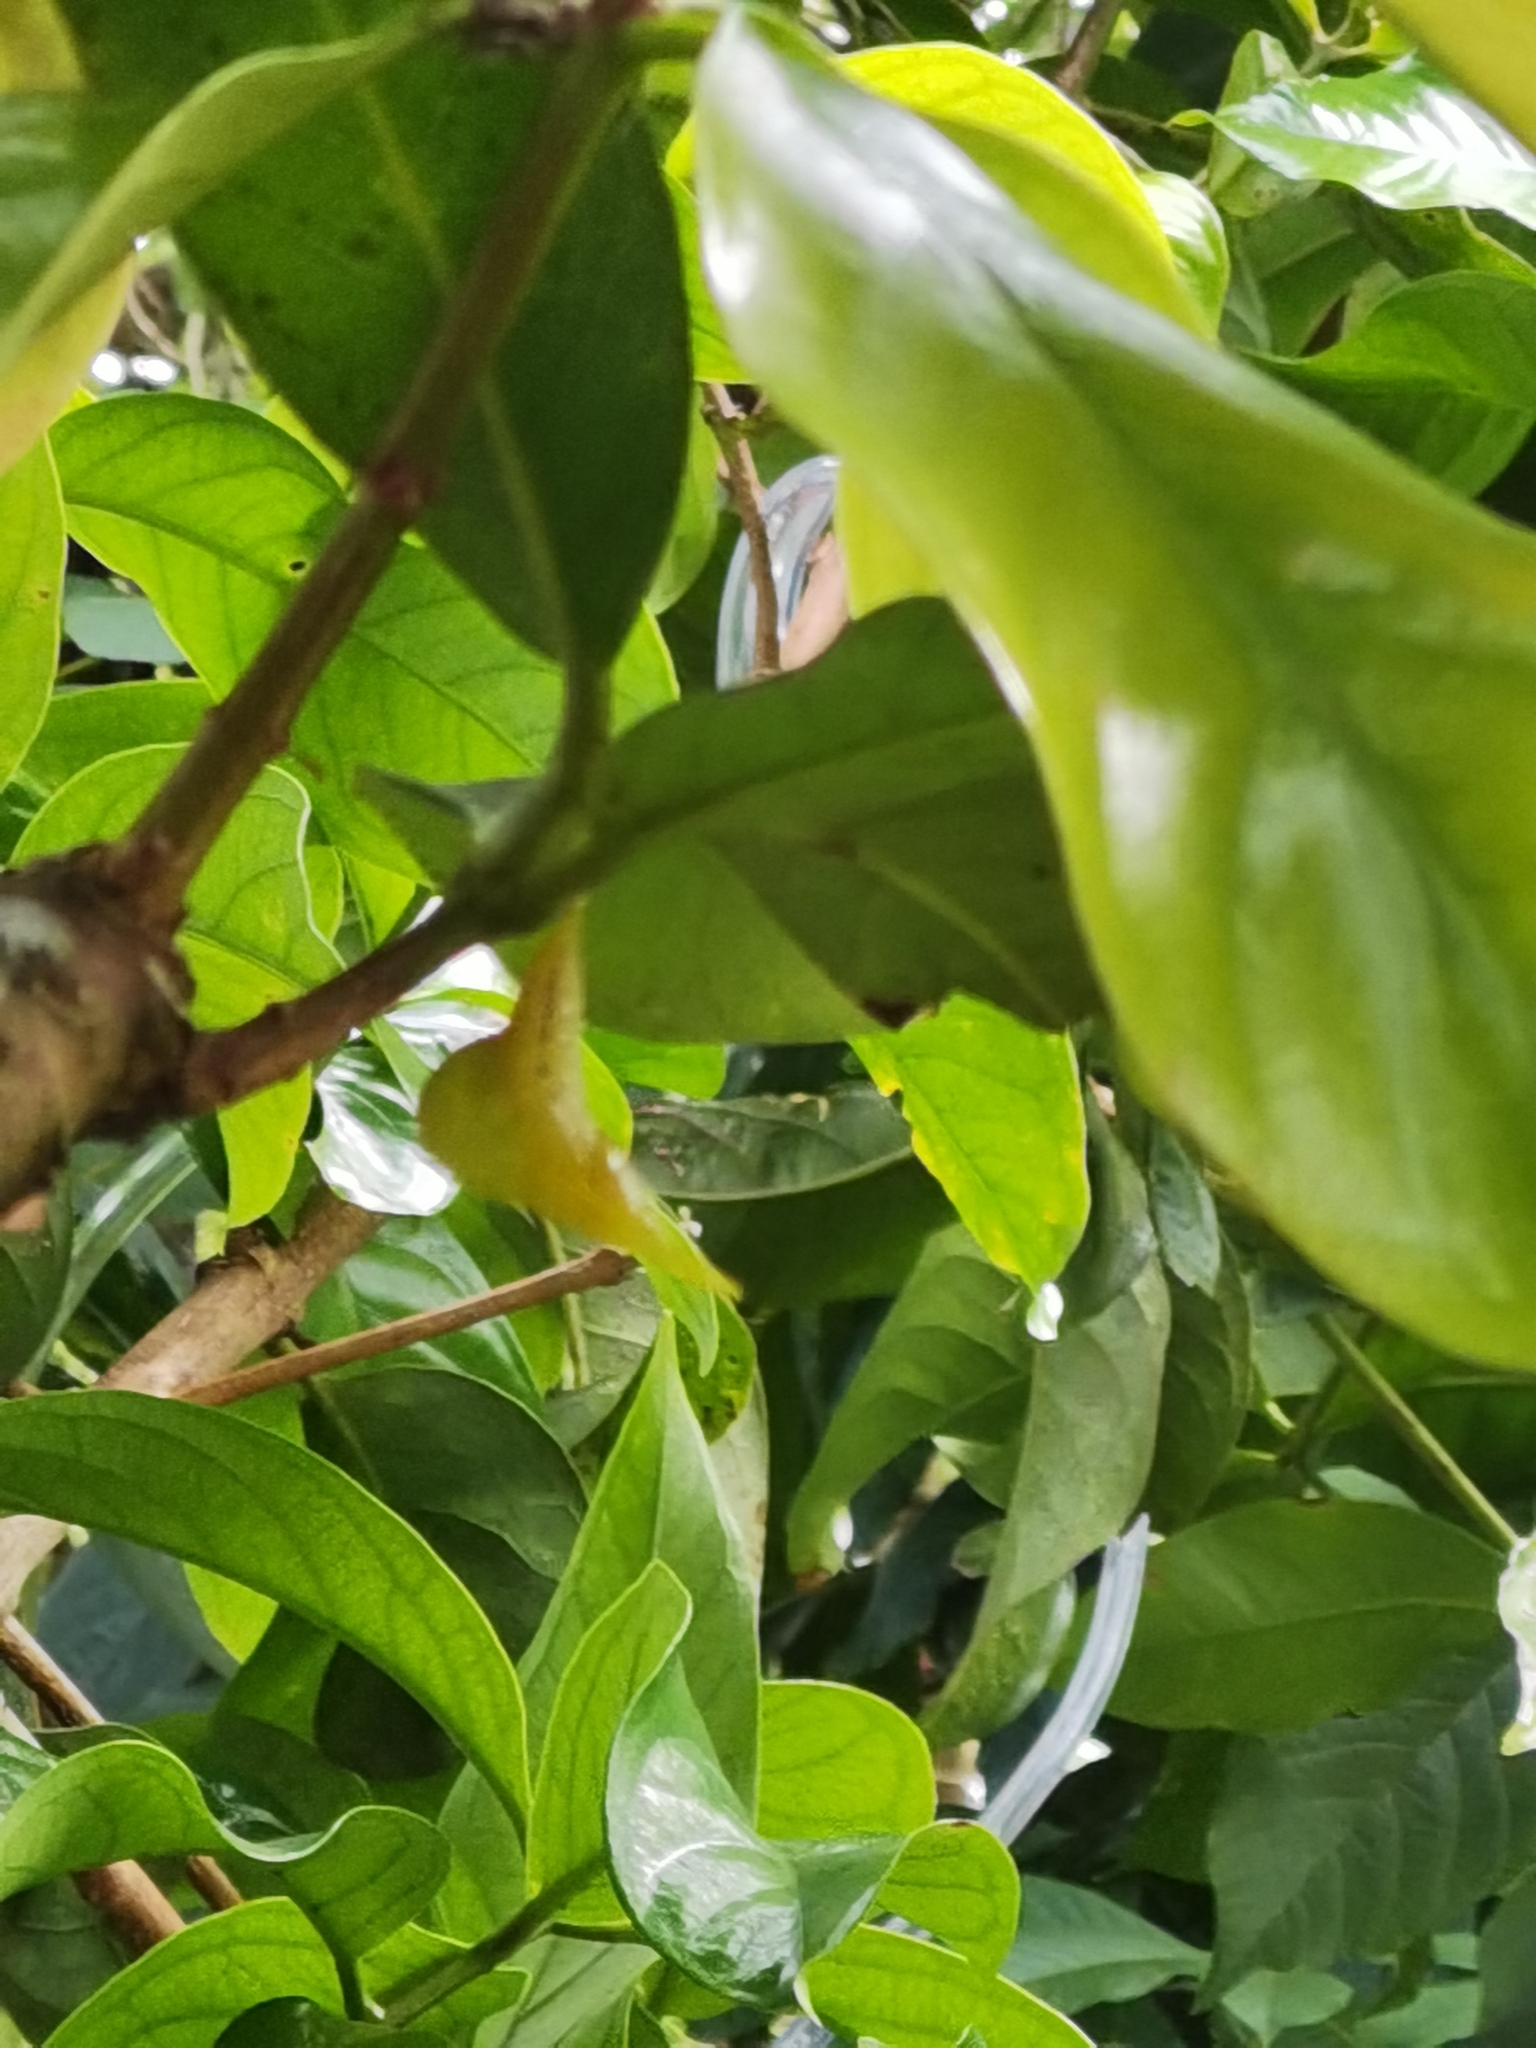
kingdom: Animalia
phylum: Arthropoda
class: Insecta
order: Lepidoptera
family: Pieridae
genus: Phoebis
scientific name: Phoebis philea
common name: Orange-barred giant sulphur
